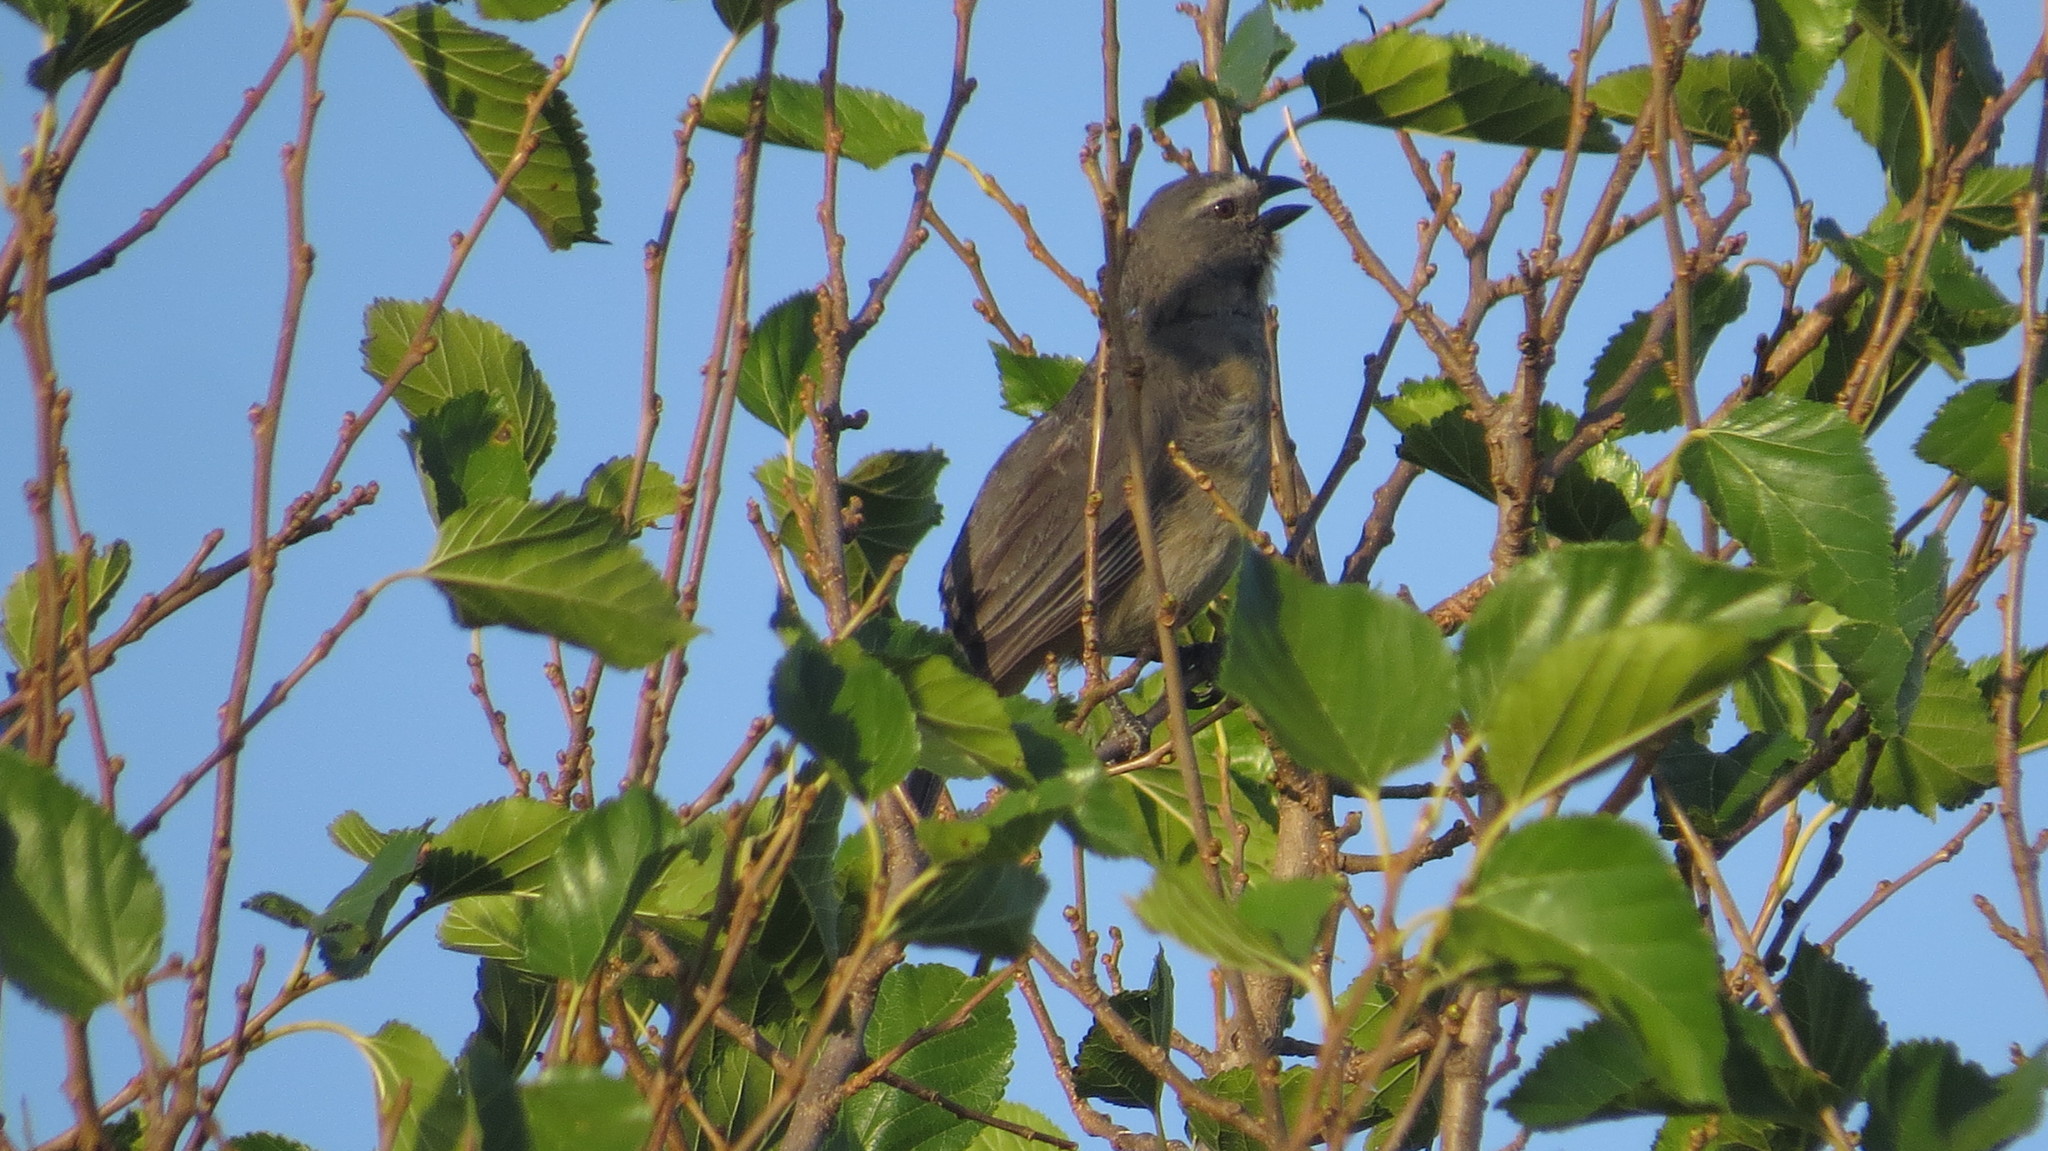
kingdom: Animalia
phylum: Chordata
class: Aves
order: Passeriformes
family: Thraupidae
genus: Saltator
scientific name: Saltator coerulescens
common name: Grayish saltator
